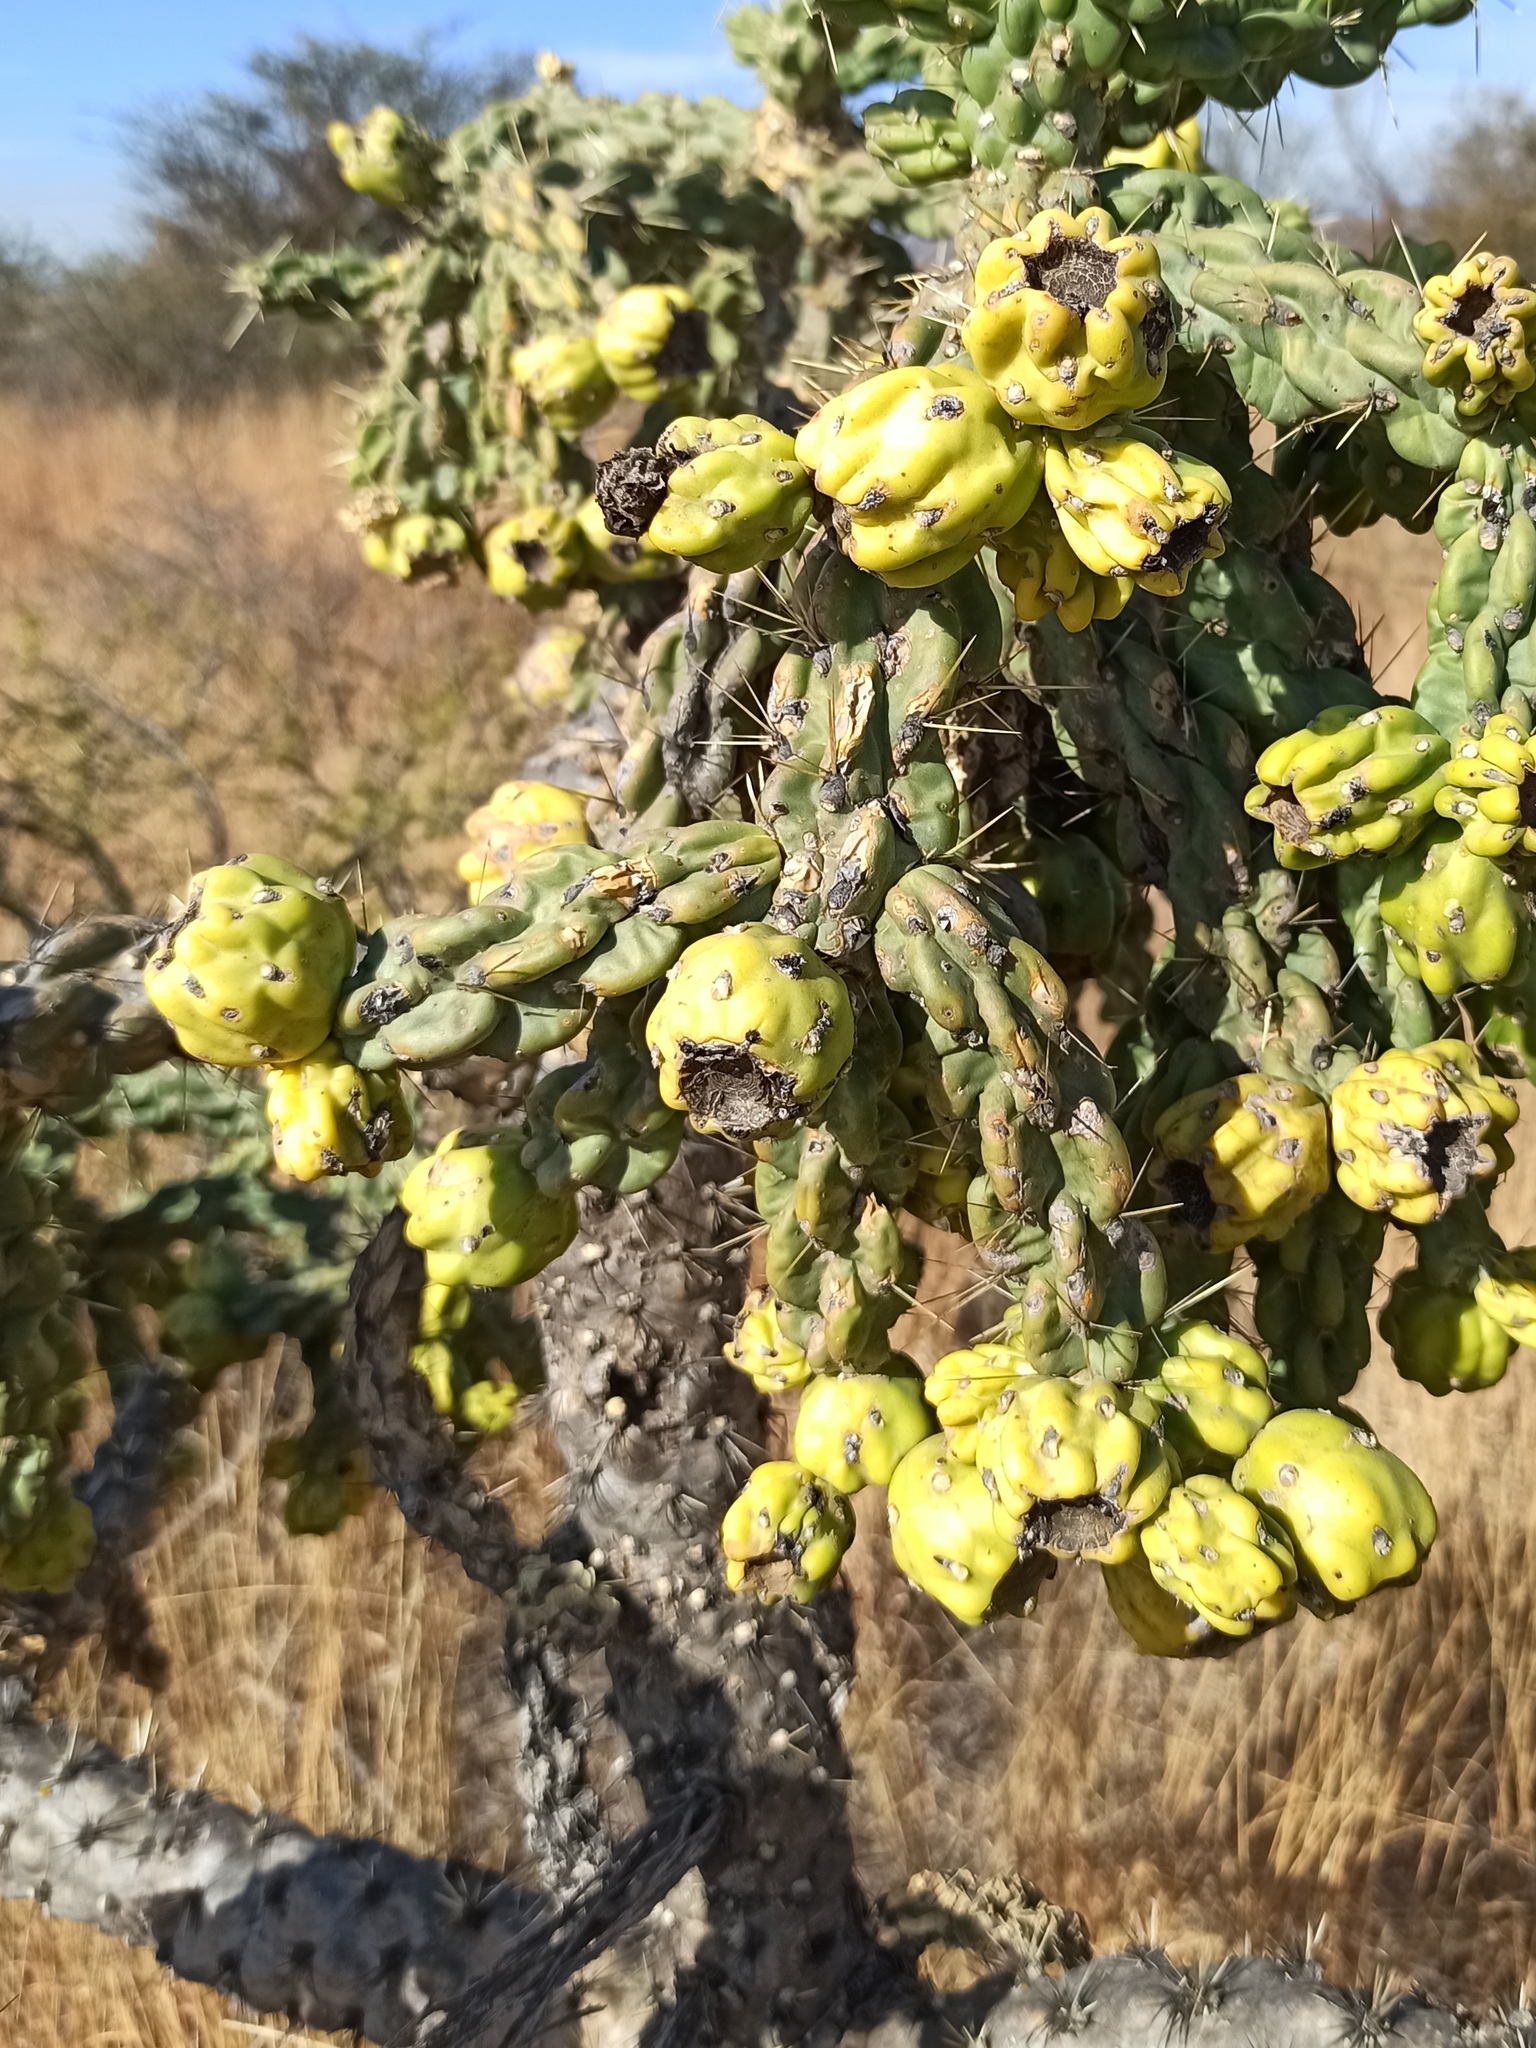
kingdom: Plantae
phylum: Tracheophyta
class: Magnoliopsida
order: Caryophyllales
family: Cactaceae
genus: Cylindropuntia
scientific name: Cylindropuntia imbricata
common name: Candelabrum cactus
